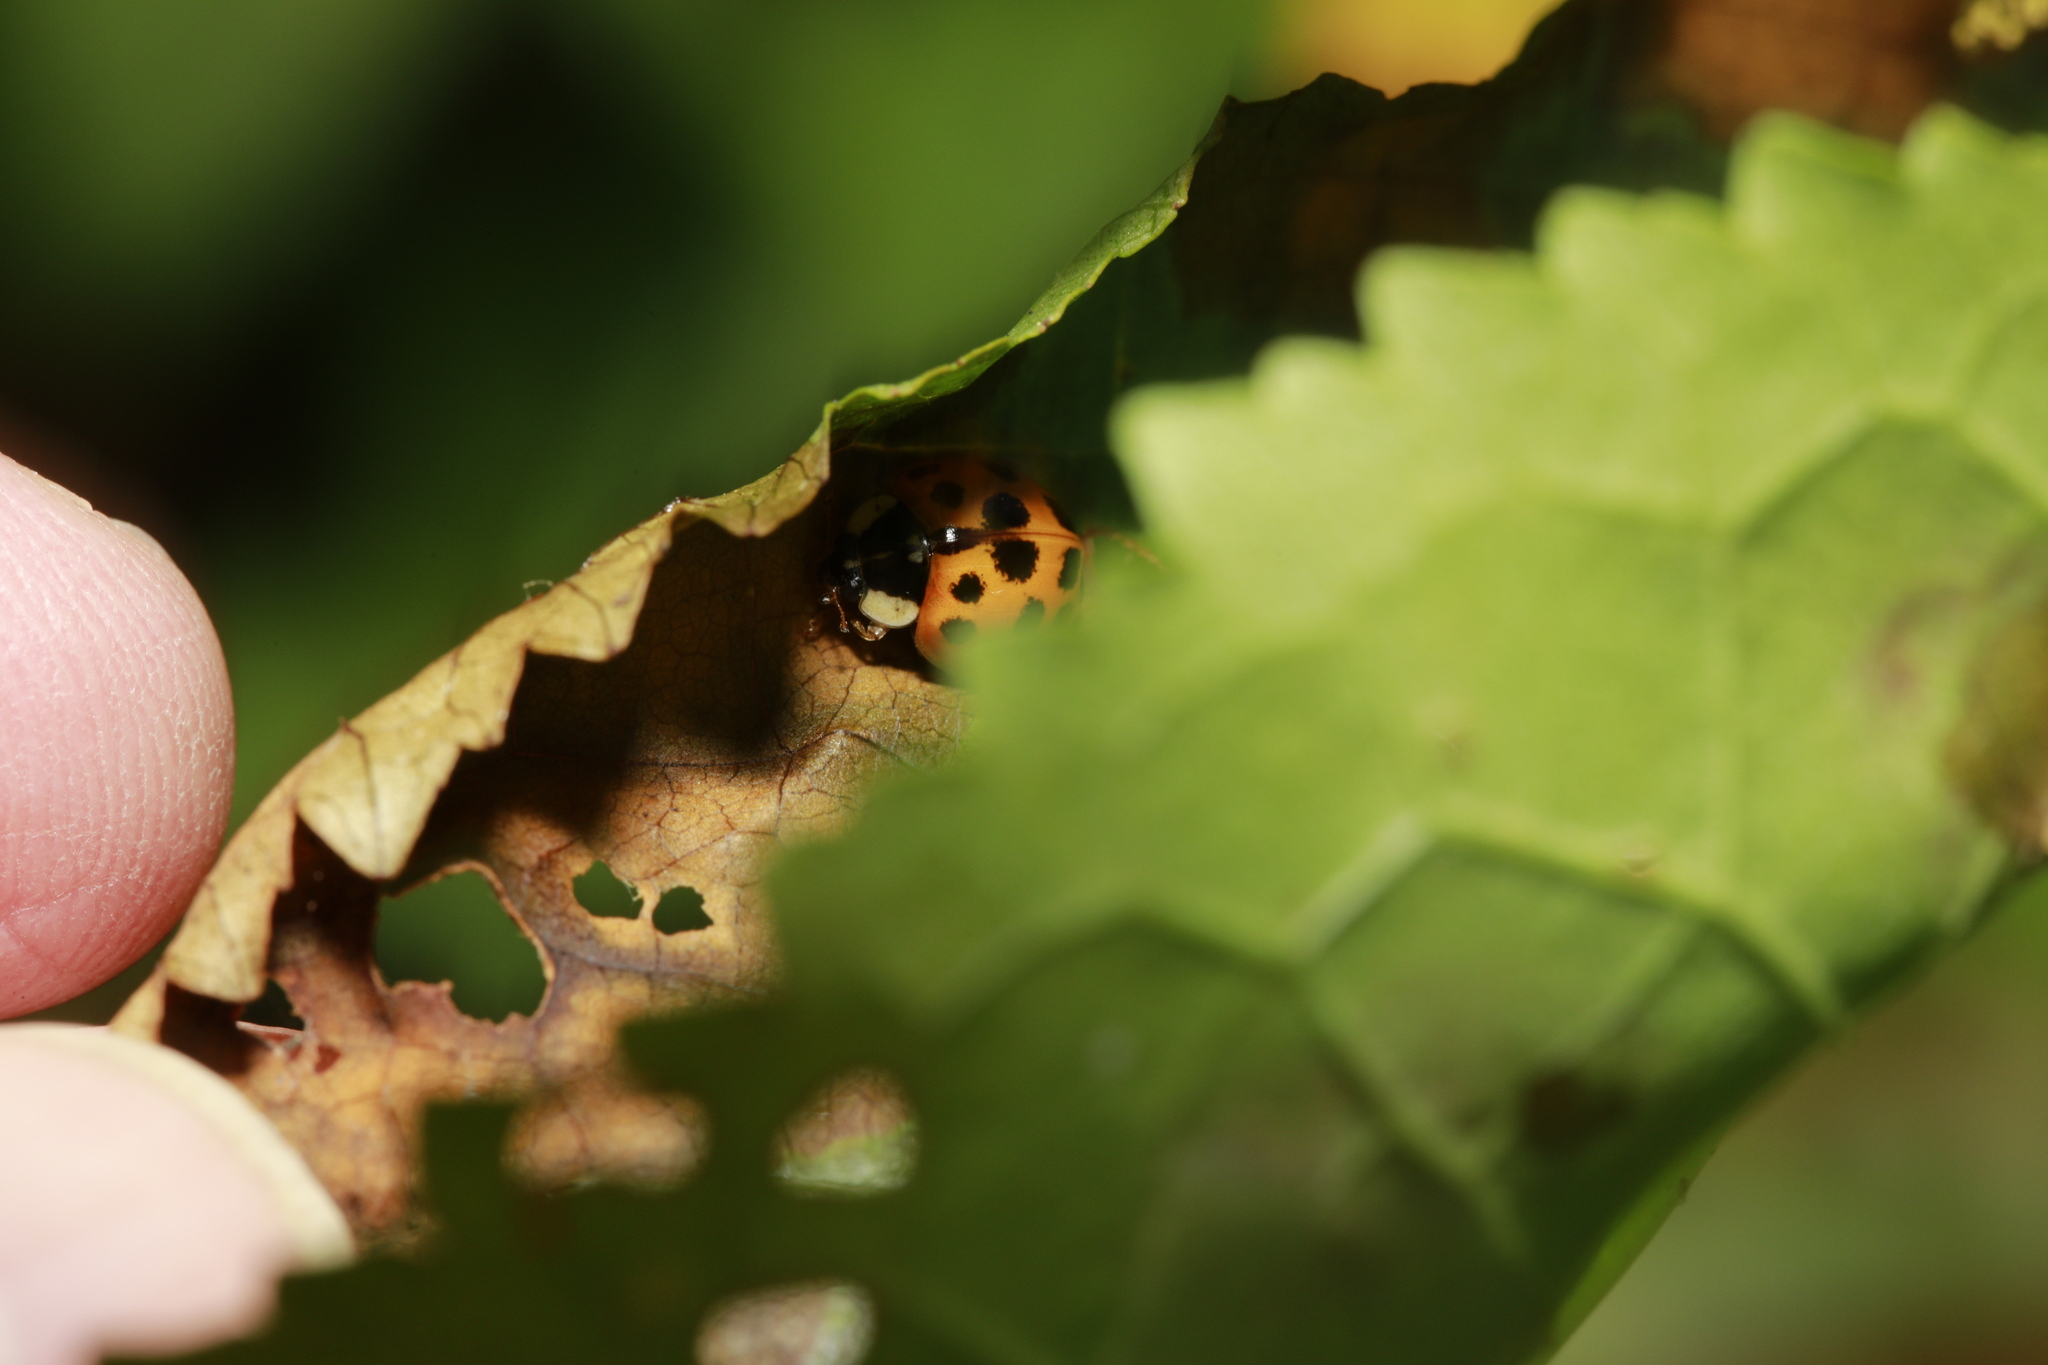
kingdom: Animalia
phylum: Arthropoda
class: Insecta
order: Coleoptera
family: Coccinellidae
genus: Harmonia
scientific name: Harmonia axyridis
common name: Harlequin ladybird
